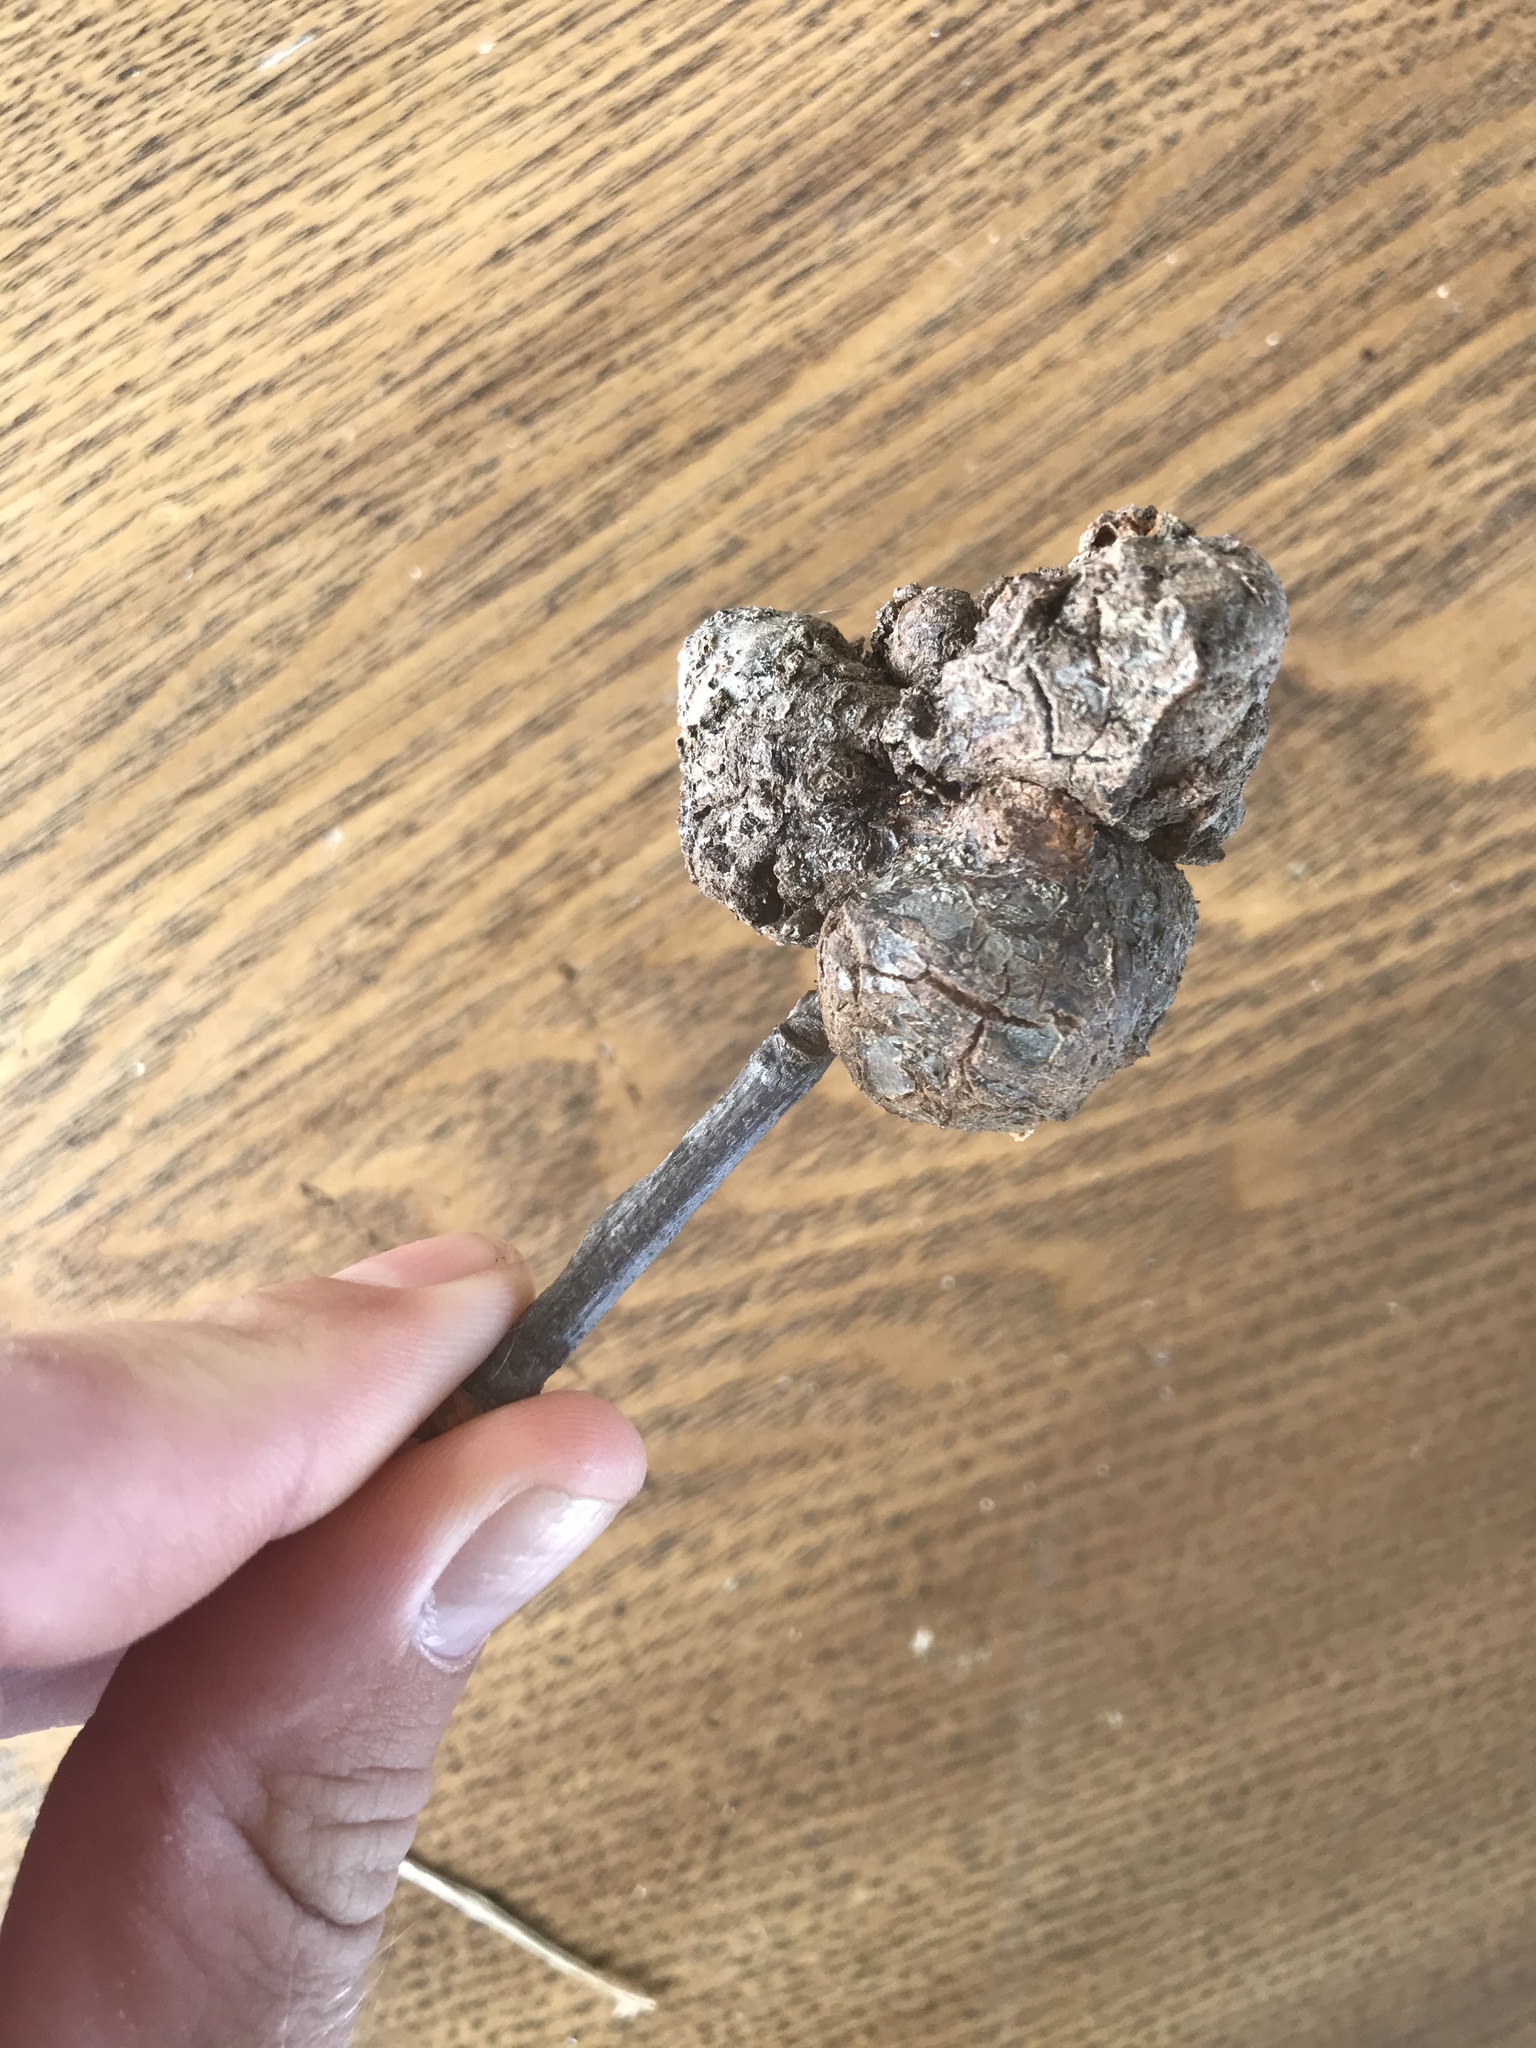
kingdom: Animalia
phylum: Arthropoda
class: Insecta
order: Hymenoptera
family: Cynipidae
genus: Callirhytis
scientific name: Callirhytis
